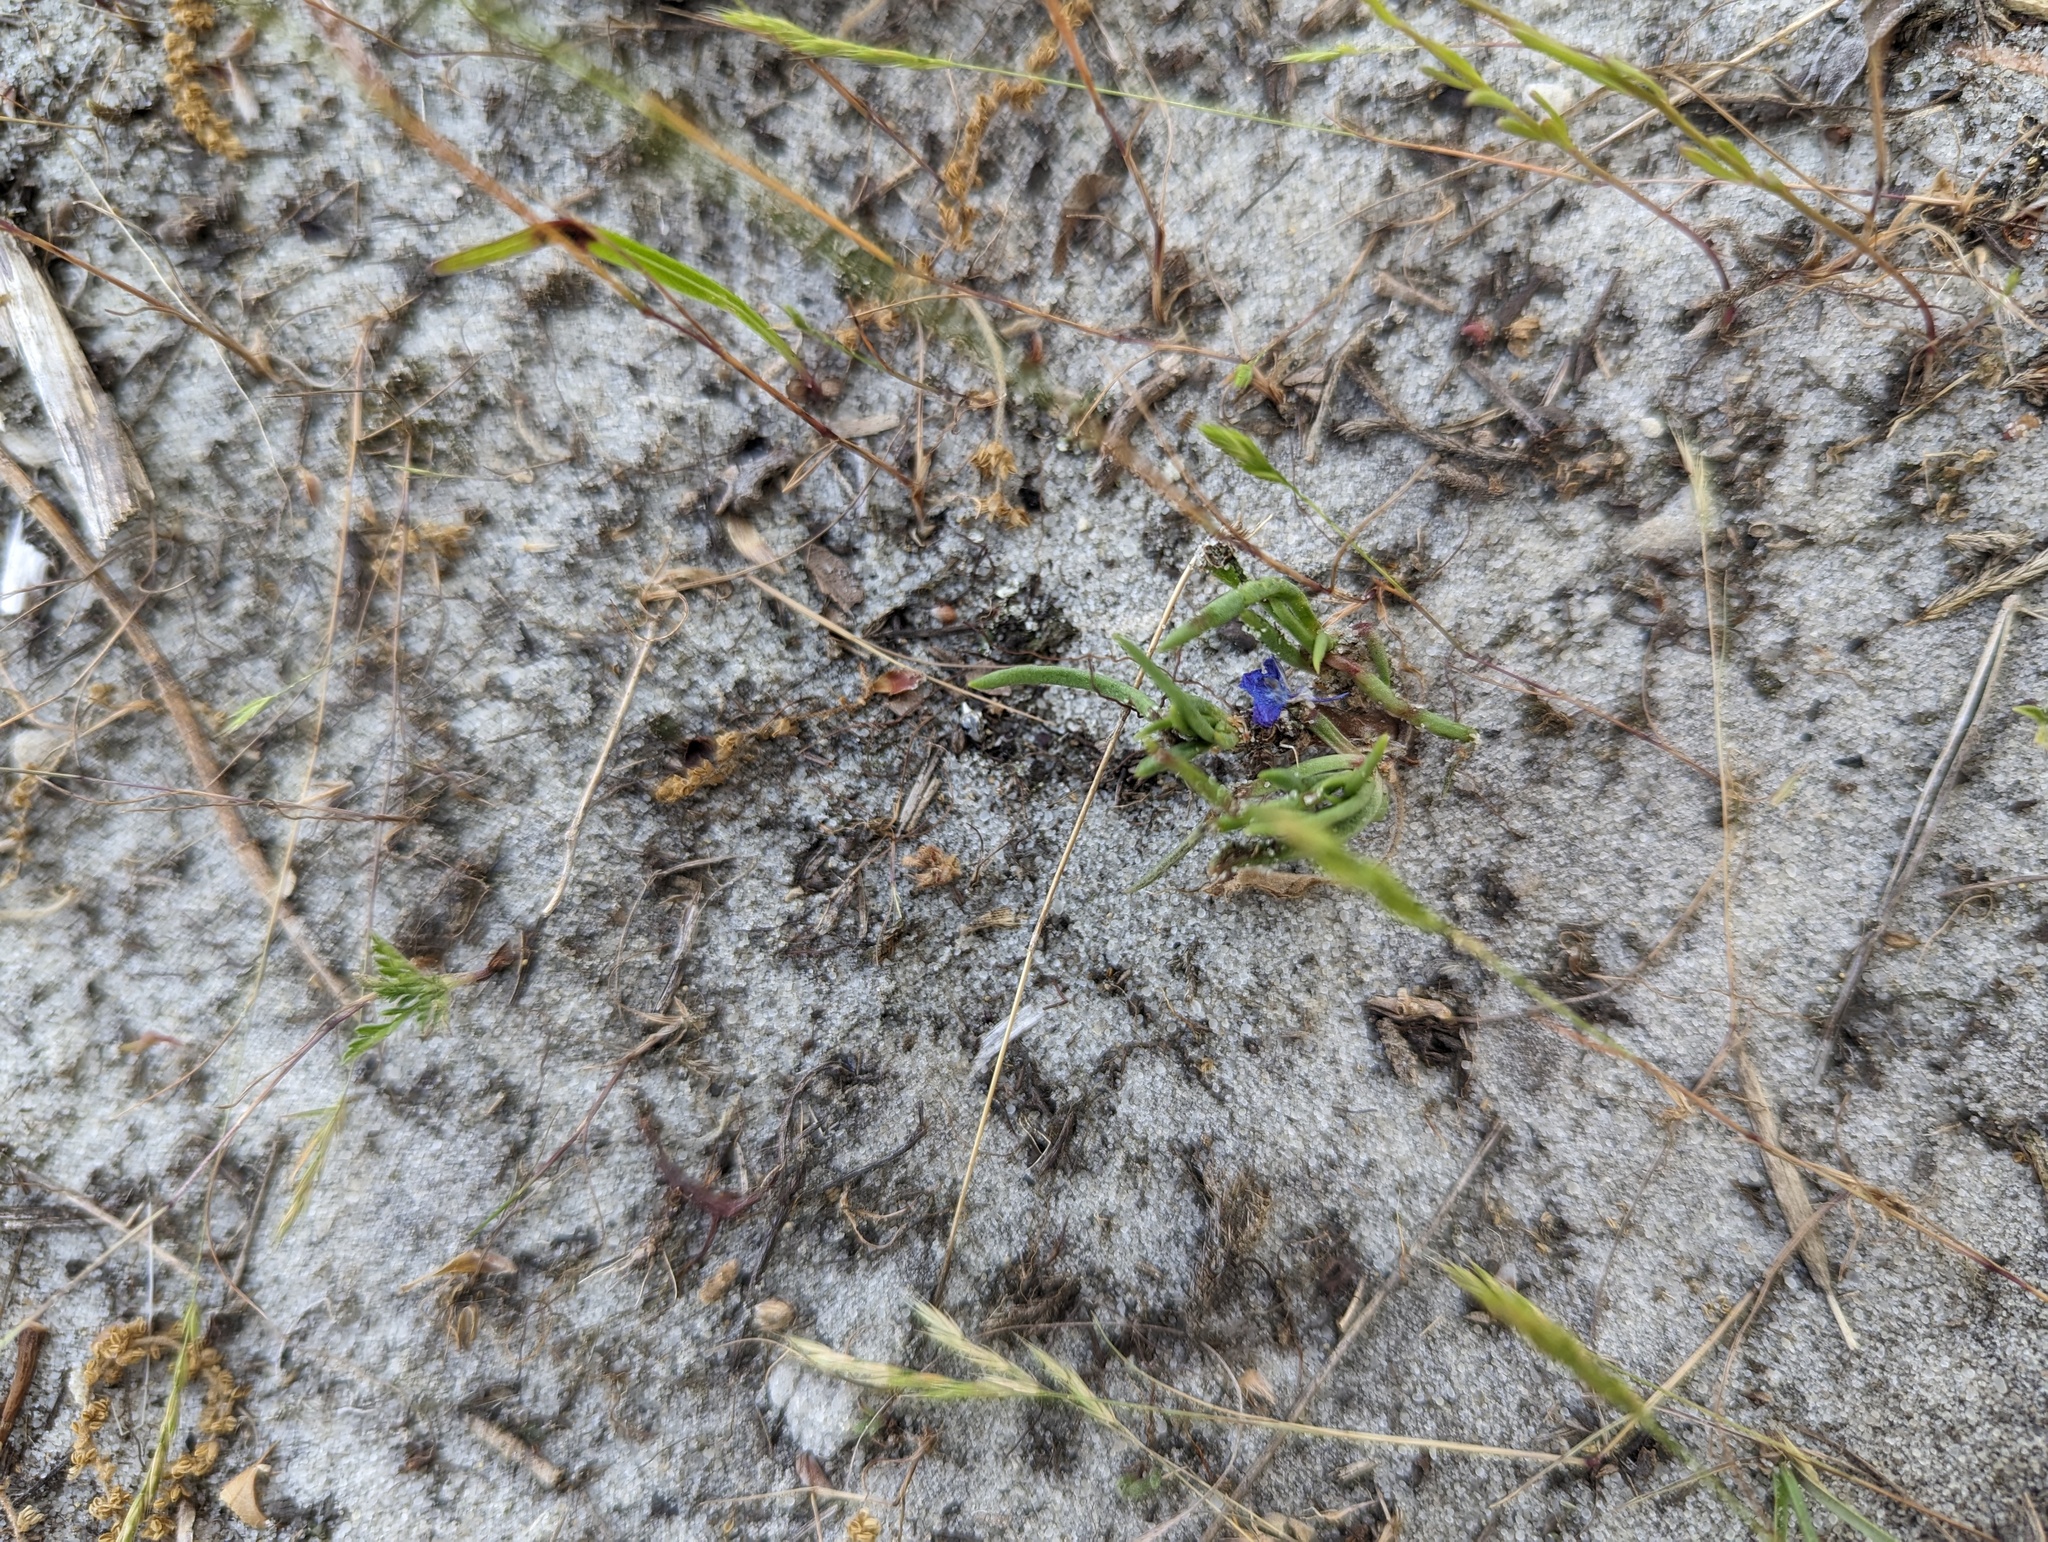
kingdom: Plantae
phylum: Tracheophyta
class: Magnoliopsida
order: Caryophyllales
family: Montiaceae
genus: Phemeranthus
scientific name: Phemeranthus rugospermus
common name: Prairie fameflower
